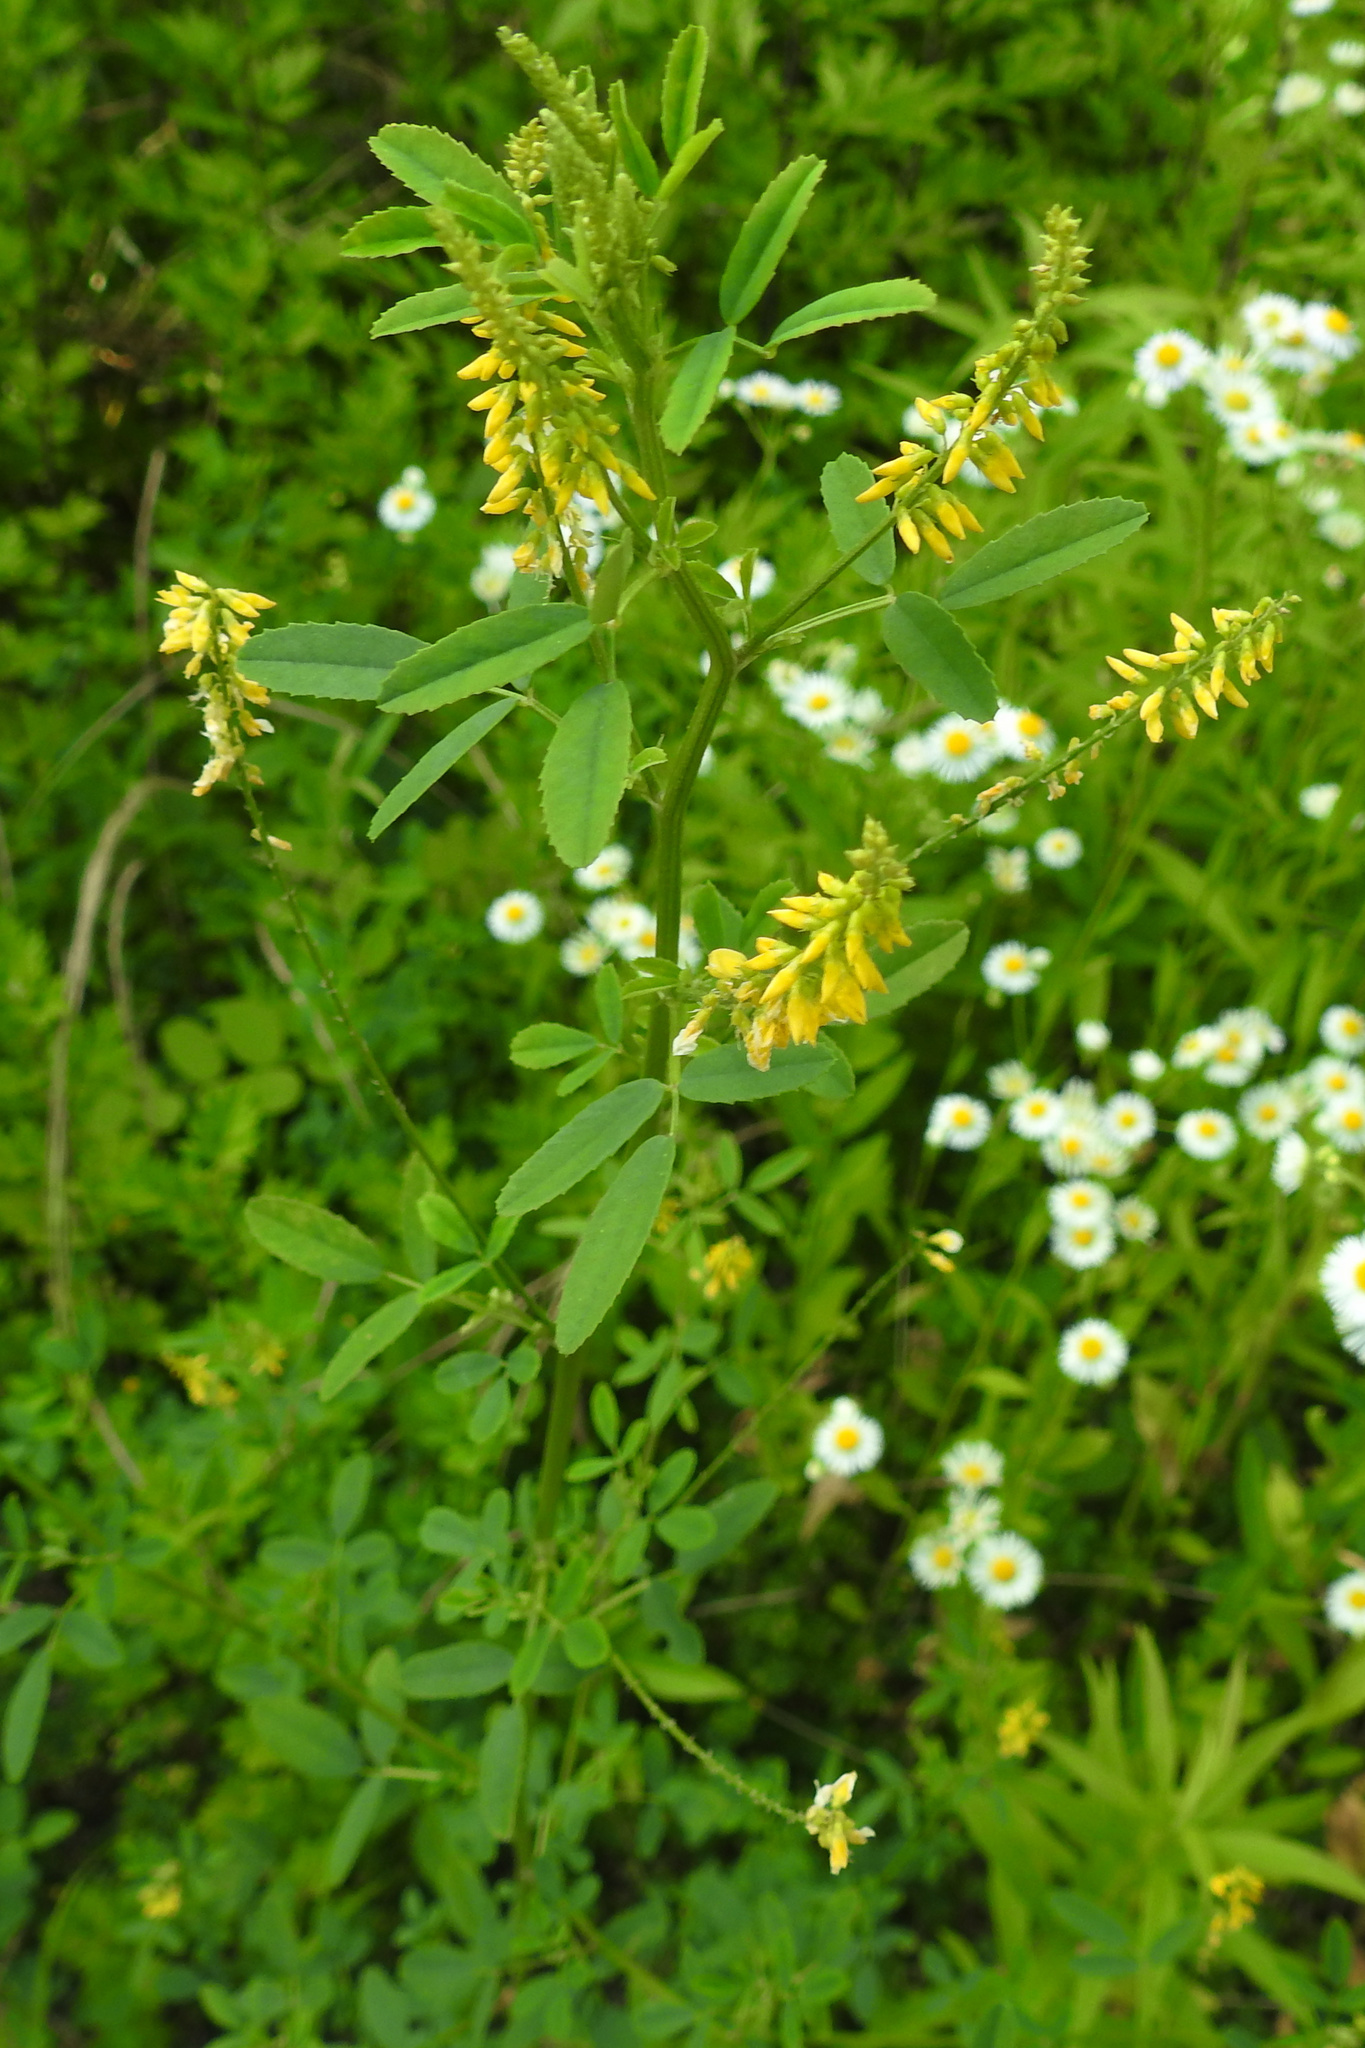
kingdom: Plantae
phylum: Tracheophyta
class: Magnoliopsida
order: Fabales
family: Fabaceae
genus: Melilotus
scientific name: Melilotus officinalis
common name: Sweetclover
